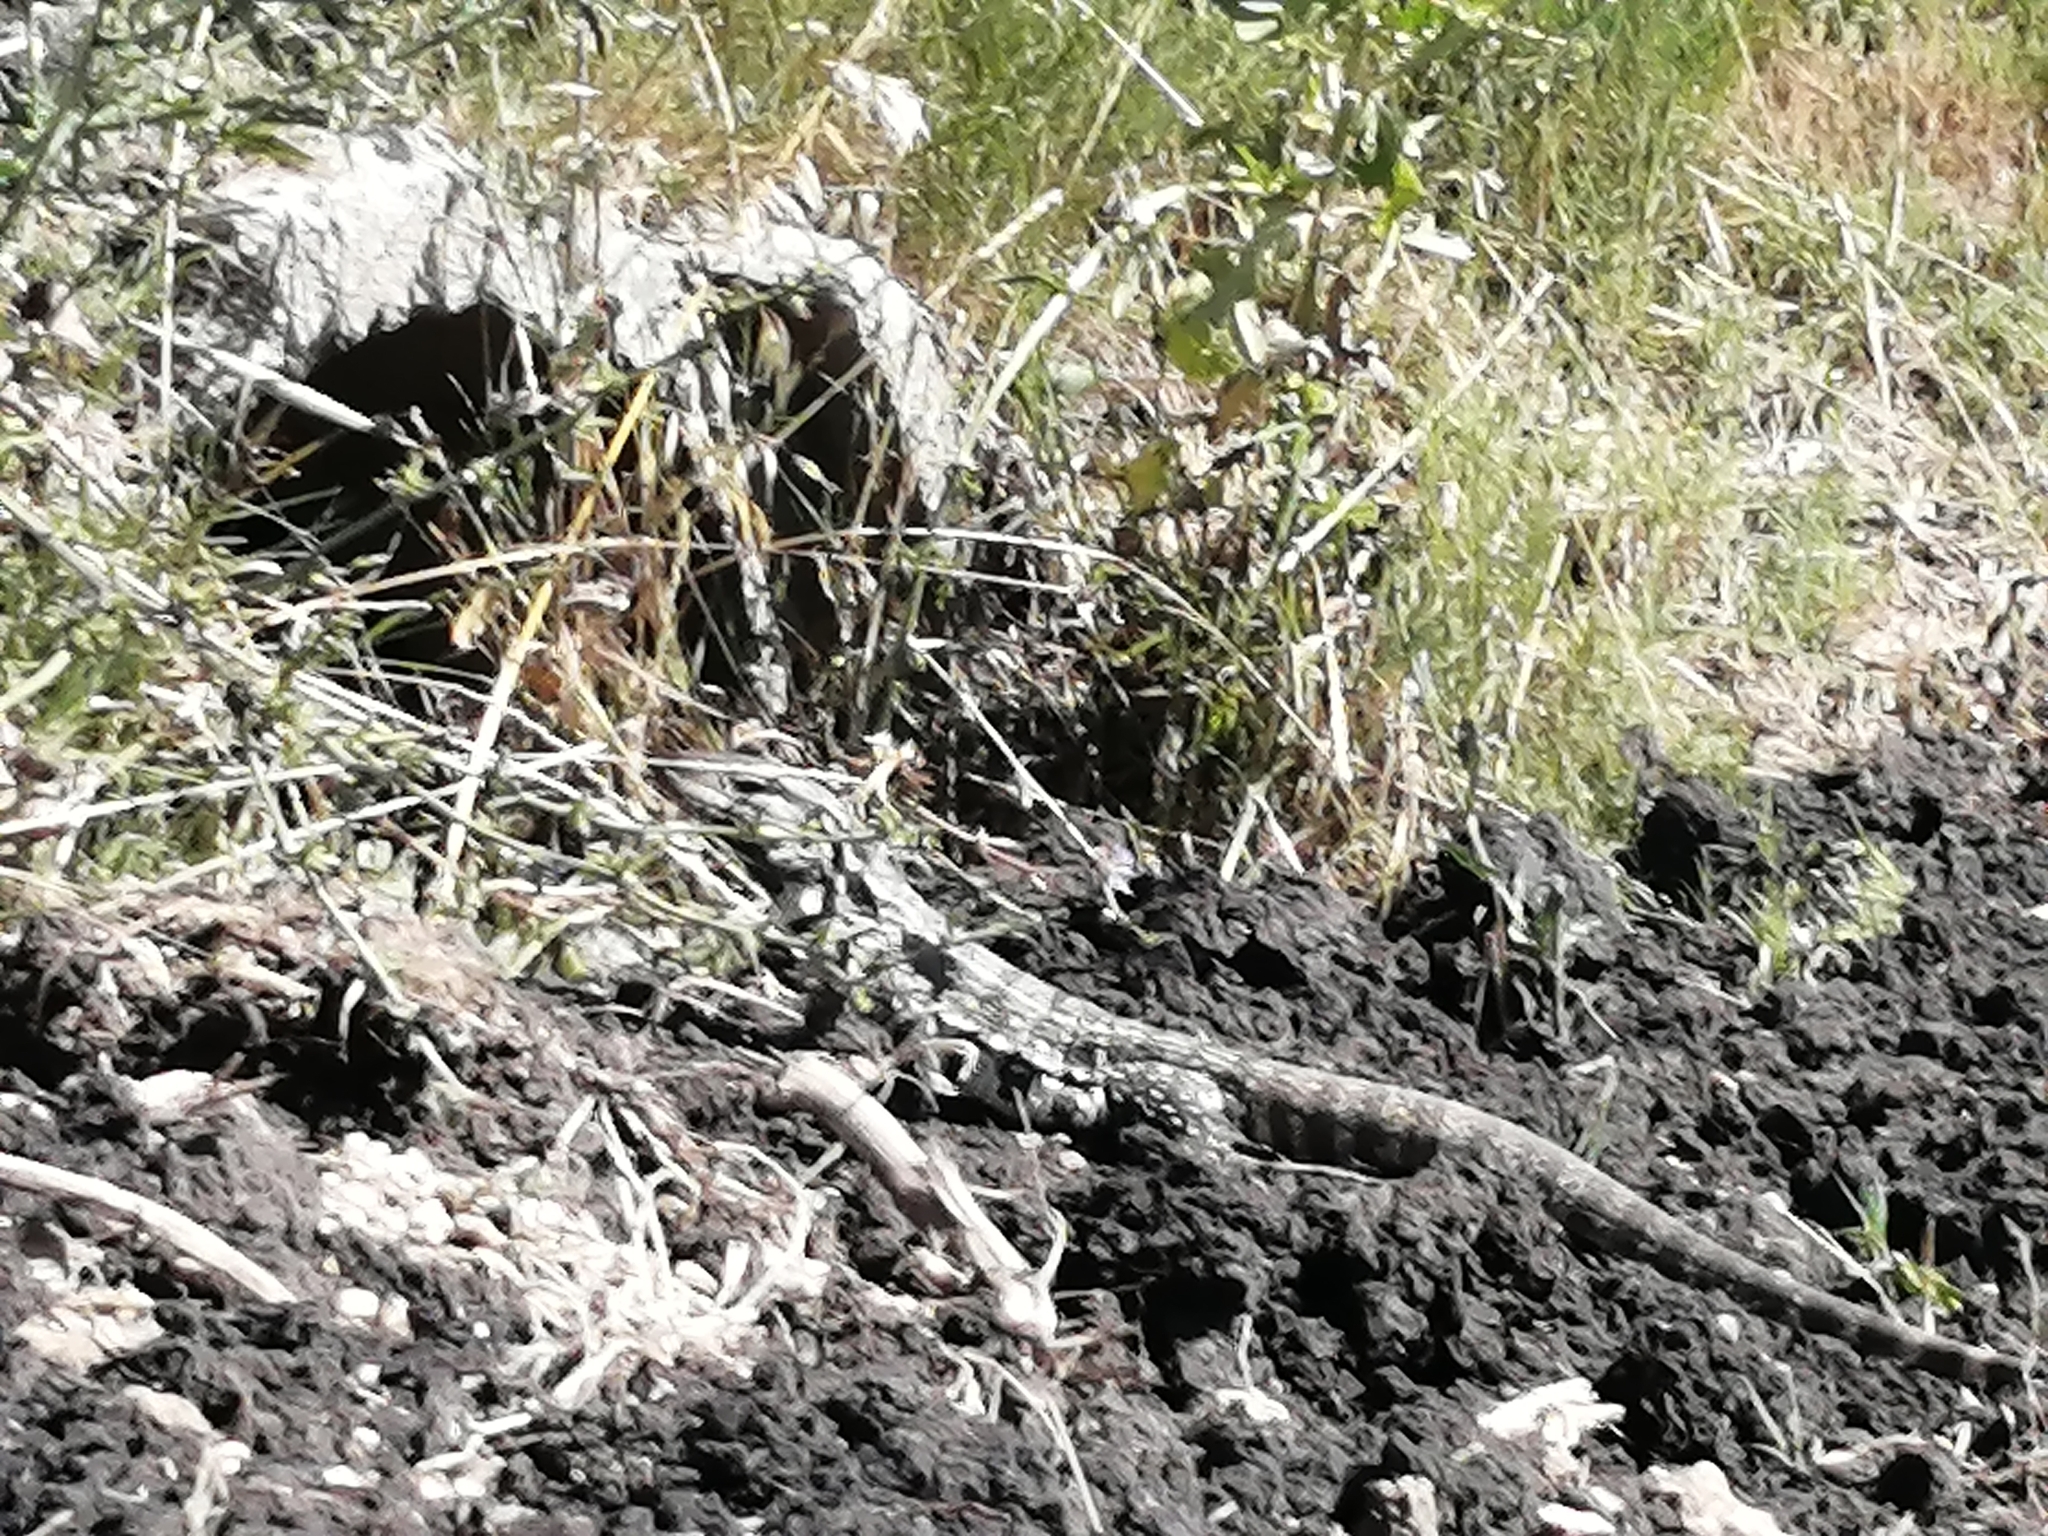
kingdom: Animalia
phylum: Chordata
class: Squamata
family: Teiidae
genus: Salvator
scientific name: Salvator merianae
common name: Argentine black and white tegu
